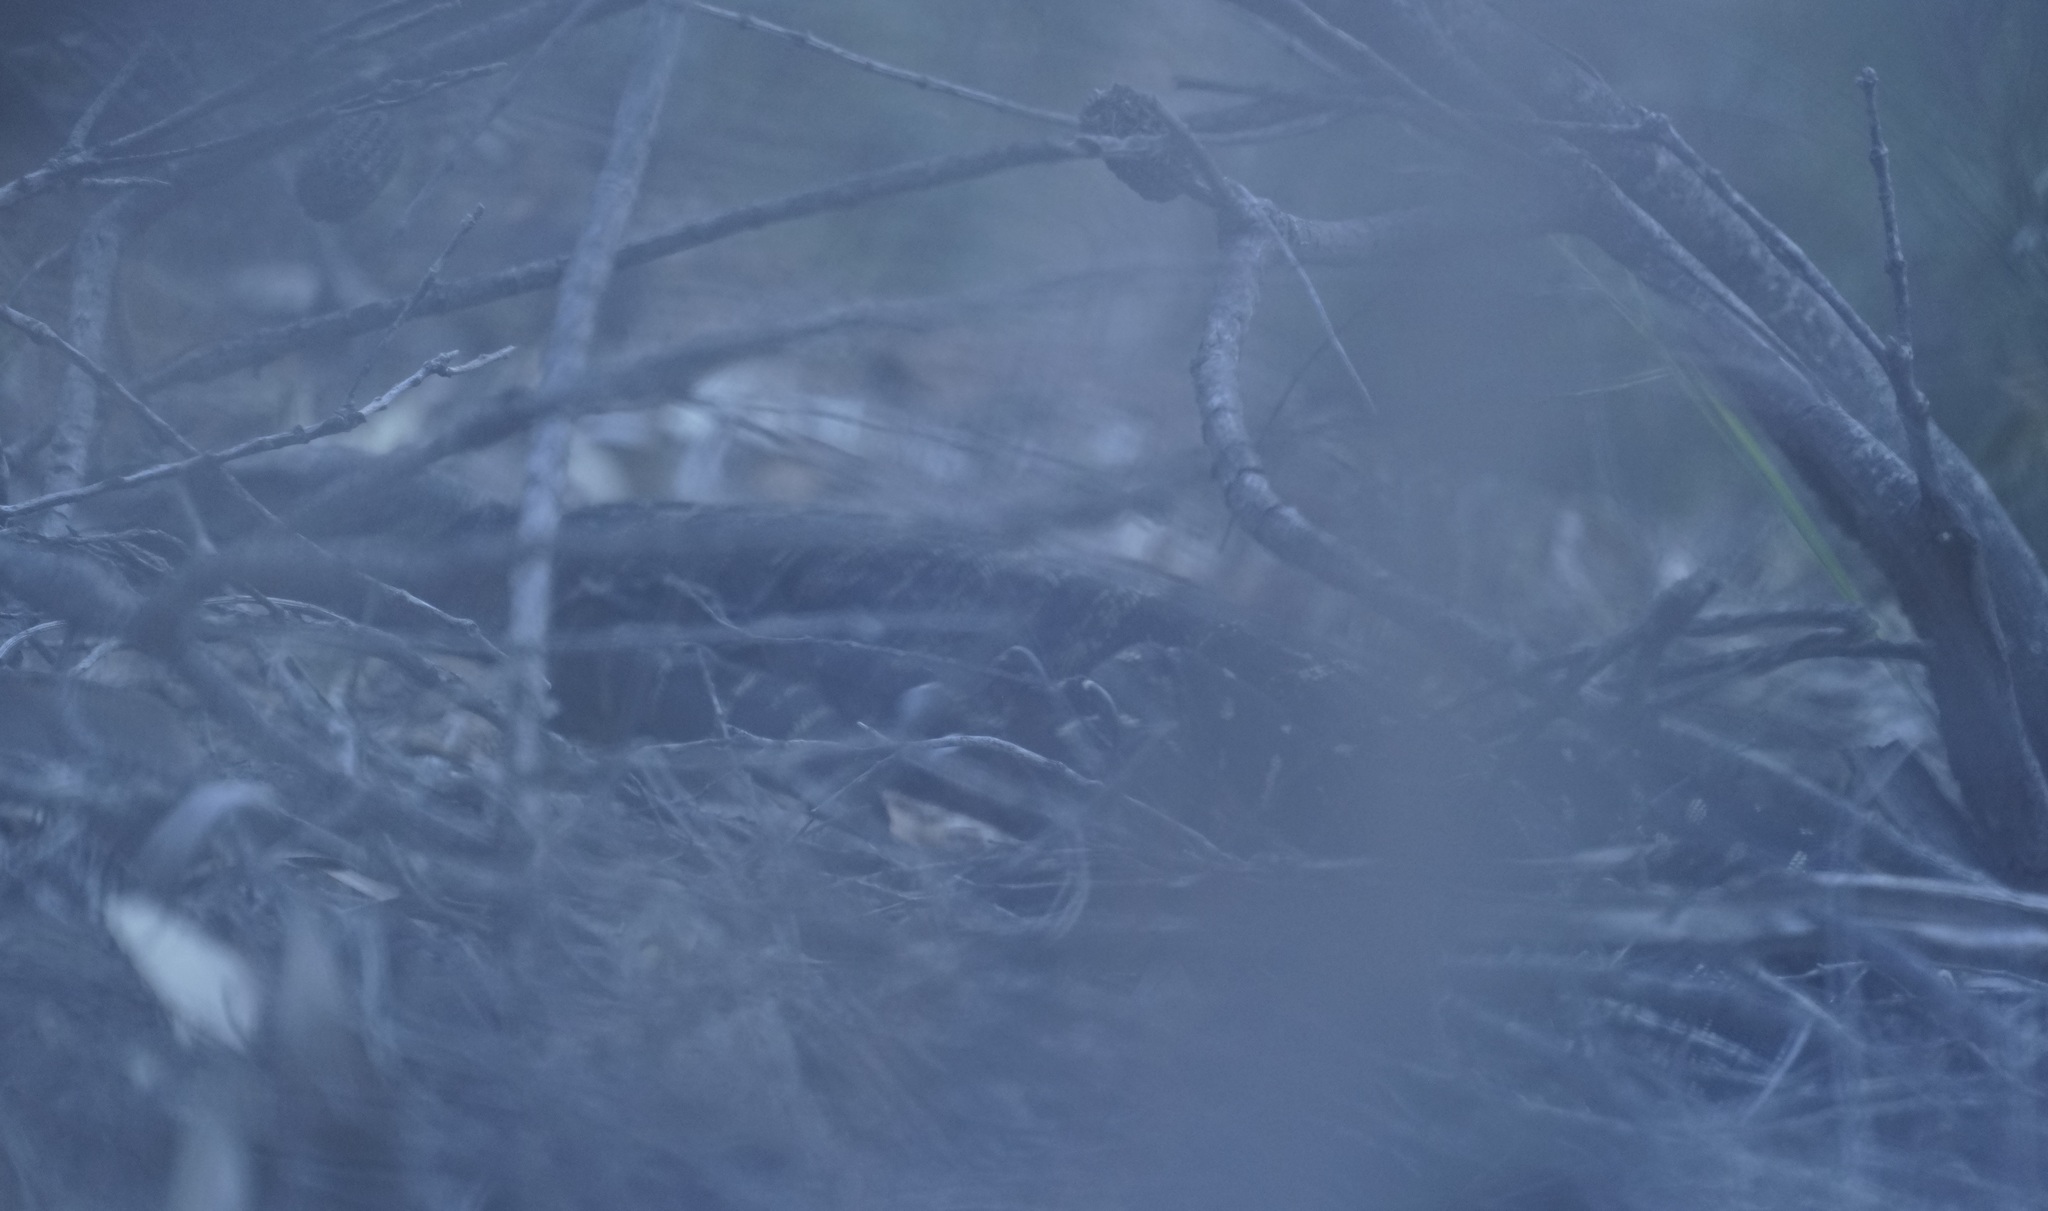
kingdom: Animalia
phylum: Chordata
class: Squamata
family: Varanidae
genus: Varanus
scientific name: Varanus varius
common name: Lace monitor
